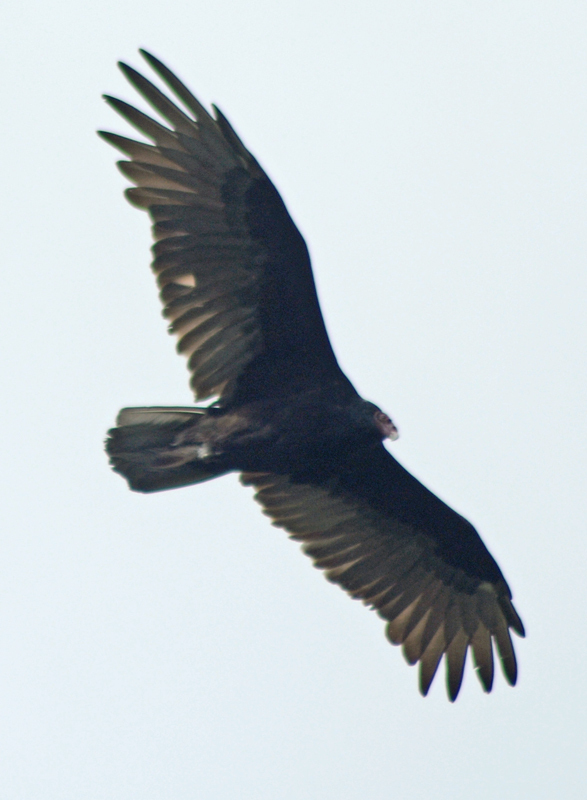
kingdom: Animalia
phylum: Chordata
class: Aves
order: Accipitriformes
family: Cathartidae
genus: Cathartes
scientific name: Cathartes aura
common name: Turkey vulture
